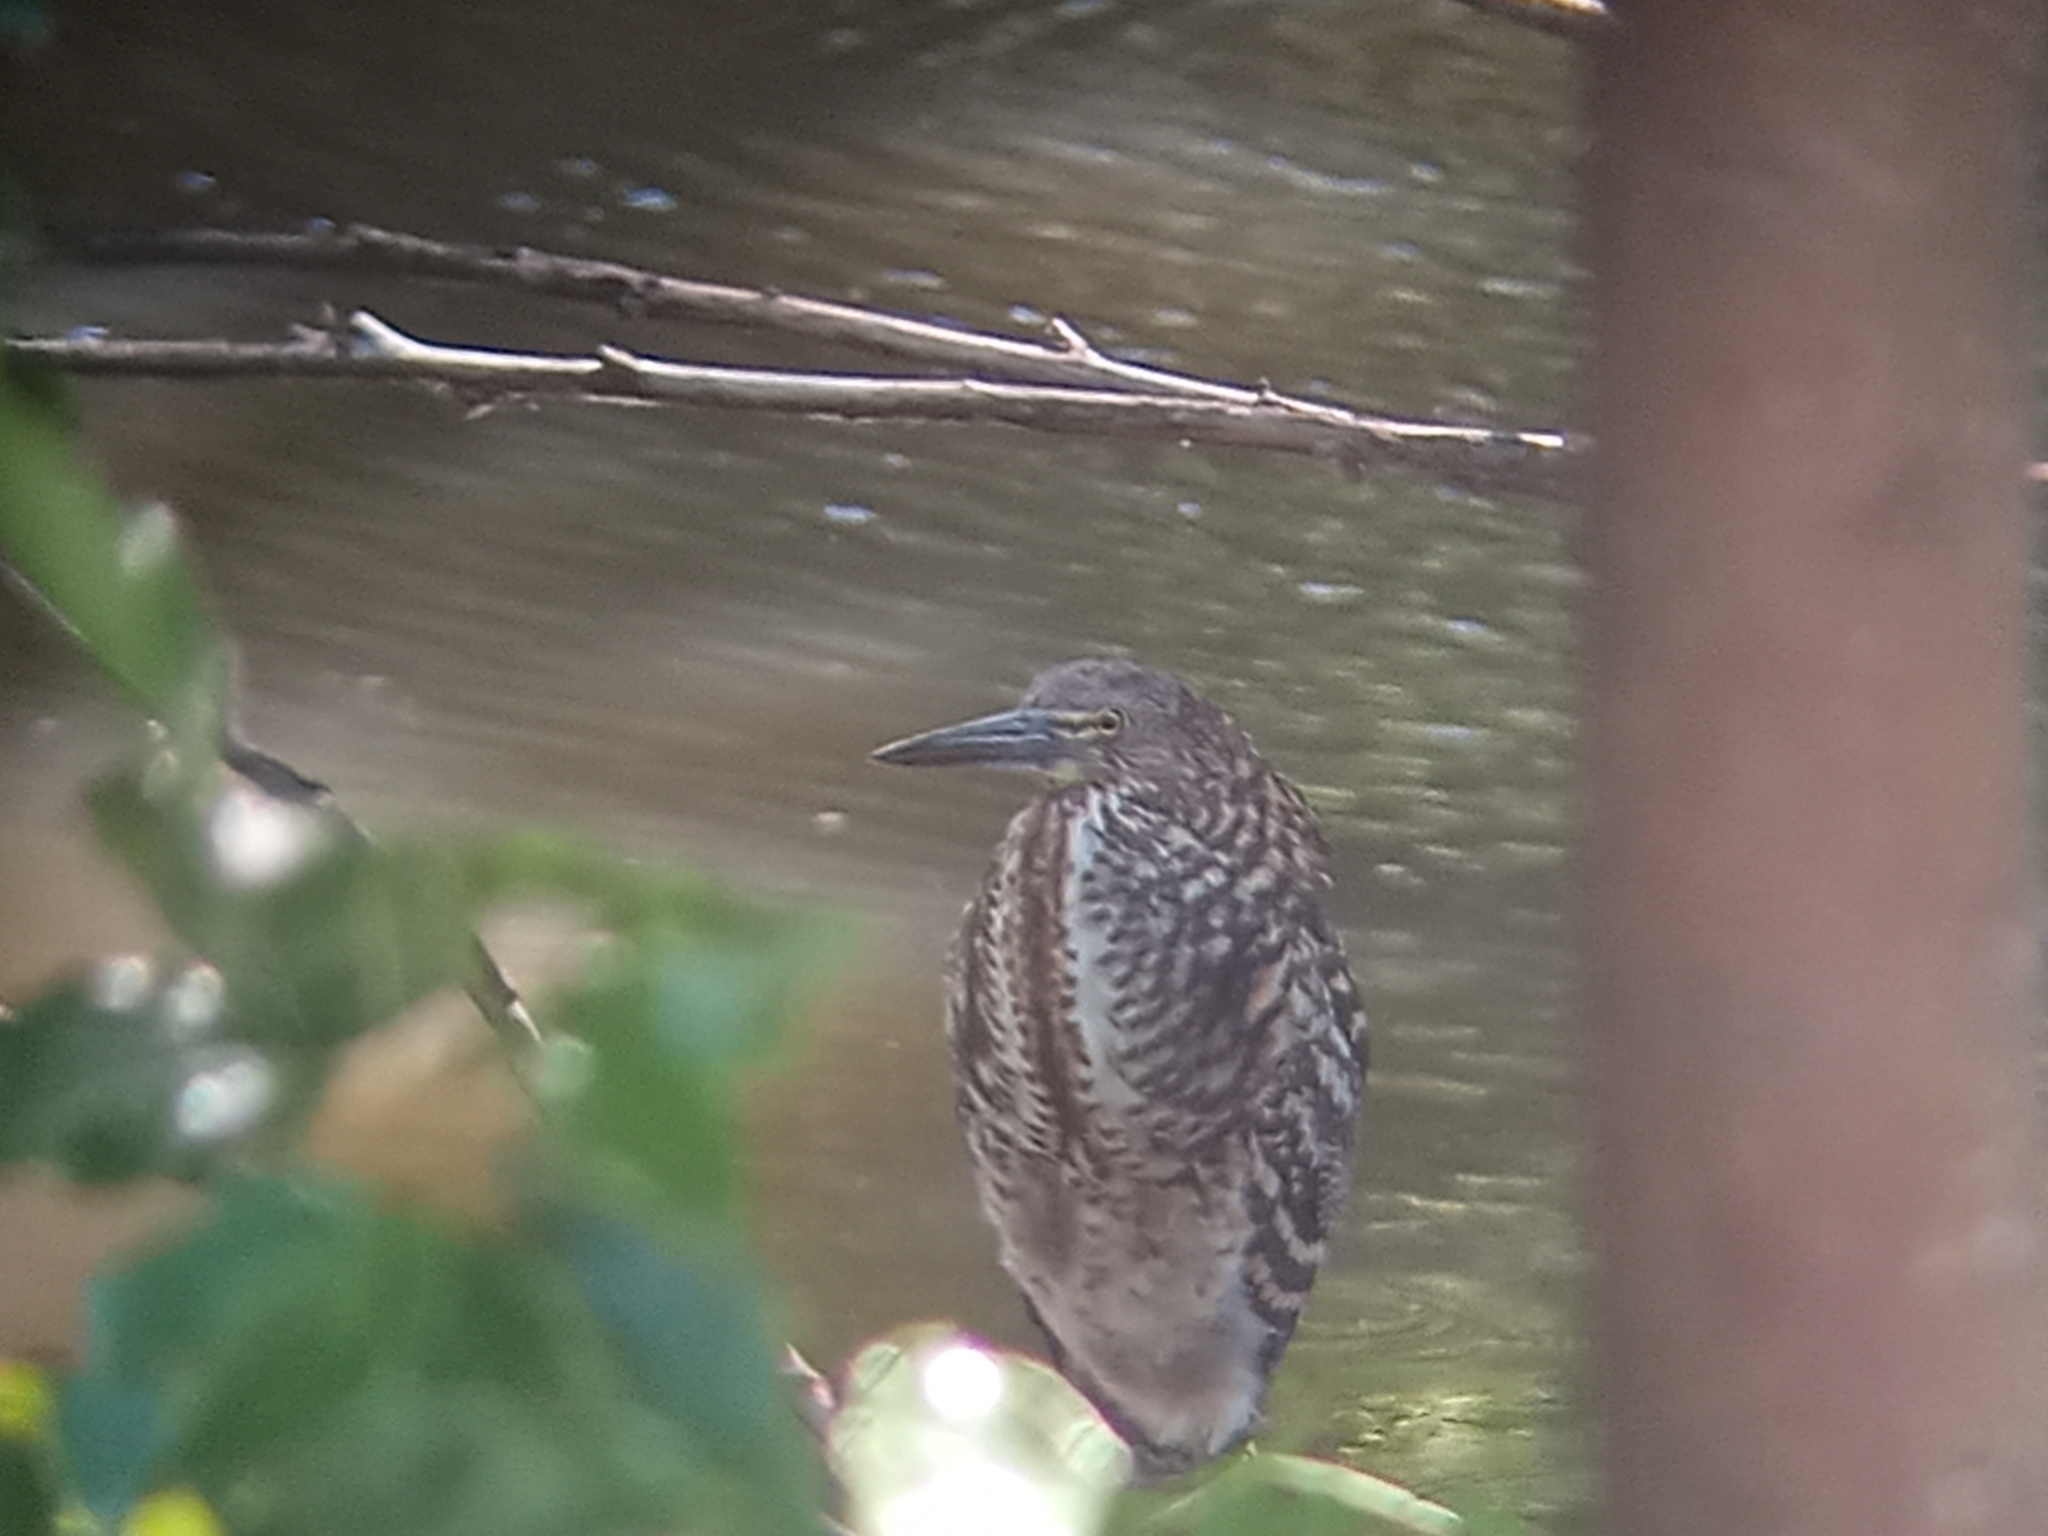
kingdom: Animalia
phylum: Chordata
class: Aves
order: Pelecaniformes
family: Ardeidae
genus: Tigrisoma
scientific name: Tigrisoma lineatum
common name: Rufescent tiger-heron
